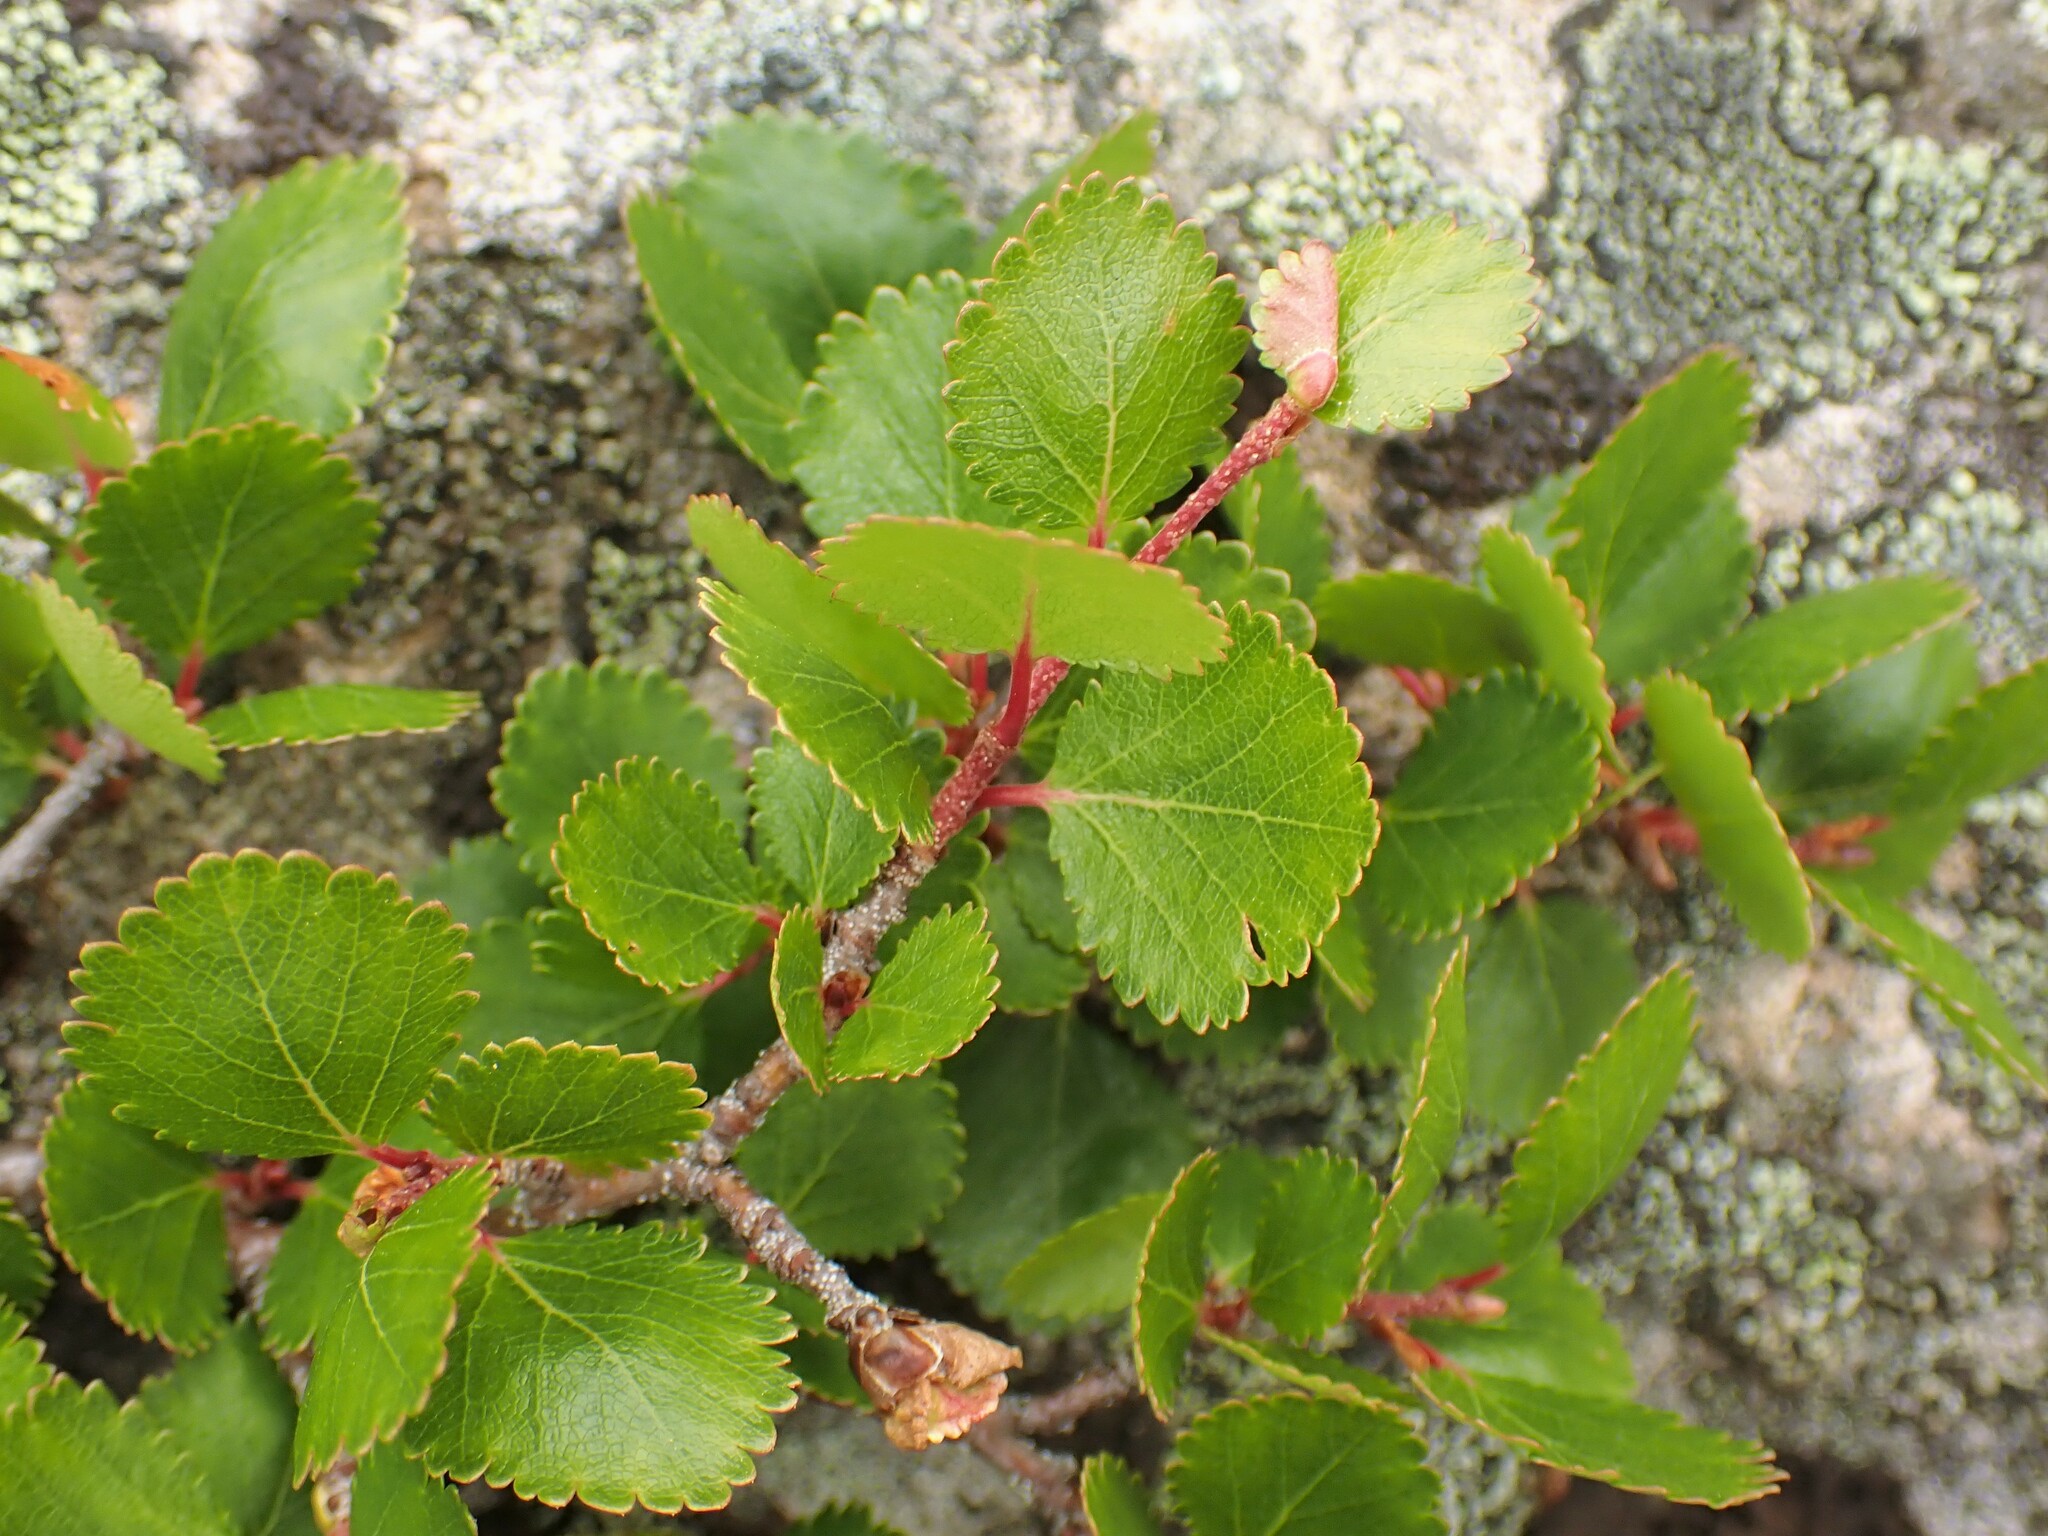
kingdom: Plantae
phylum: Tracheophyta
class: Magnoliopsida
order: Fagales
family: Betulaceae
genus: Betula
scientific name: Betula glandulosa
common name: Dwarf birch
